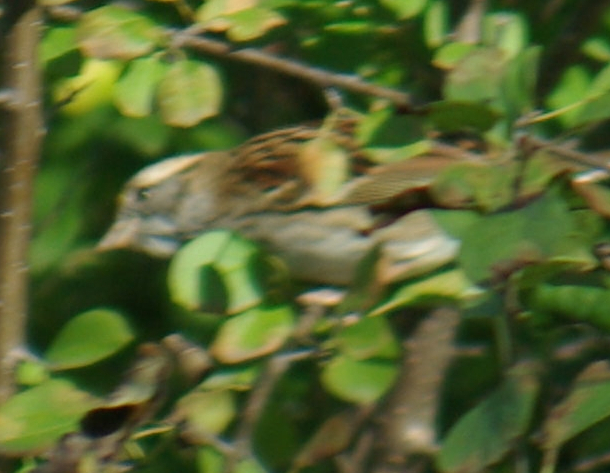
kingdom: Animalia
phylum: Chordata
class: Aves
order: Passeriformes
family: Passerellidae
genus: Zonotrichia
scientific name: Zonotrichia albicollis
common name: White-throated sparrow
